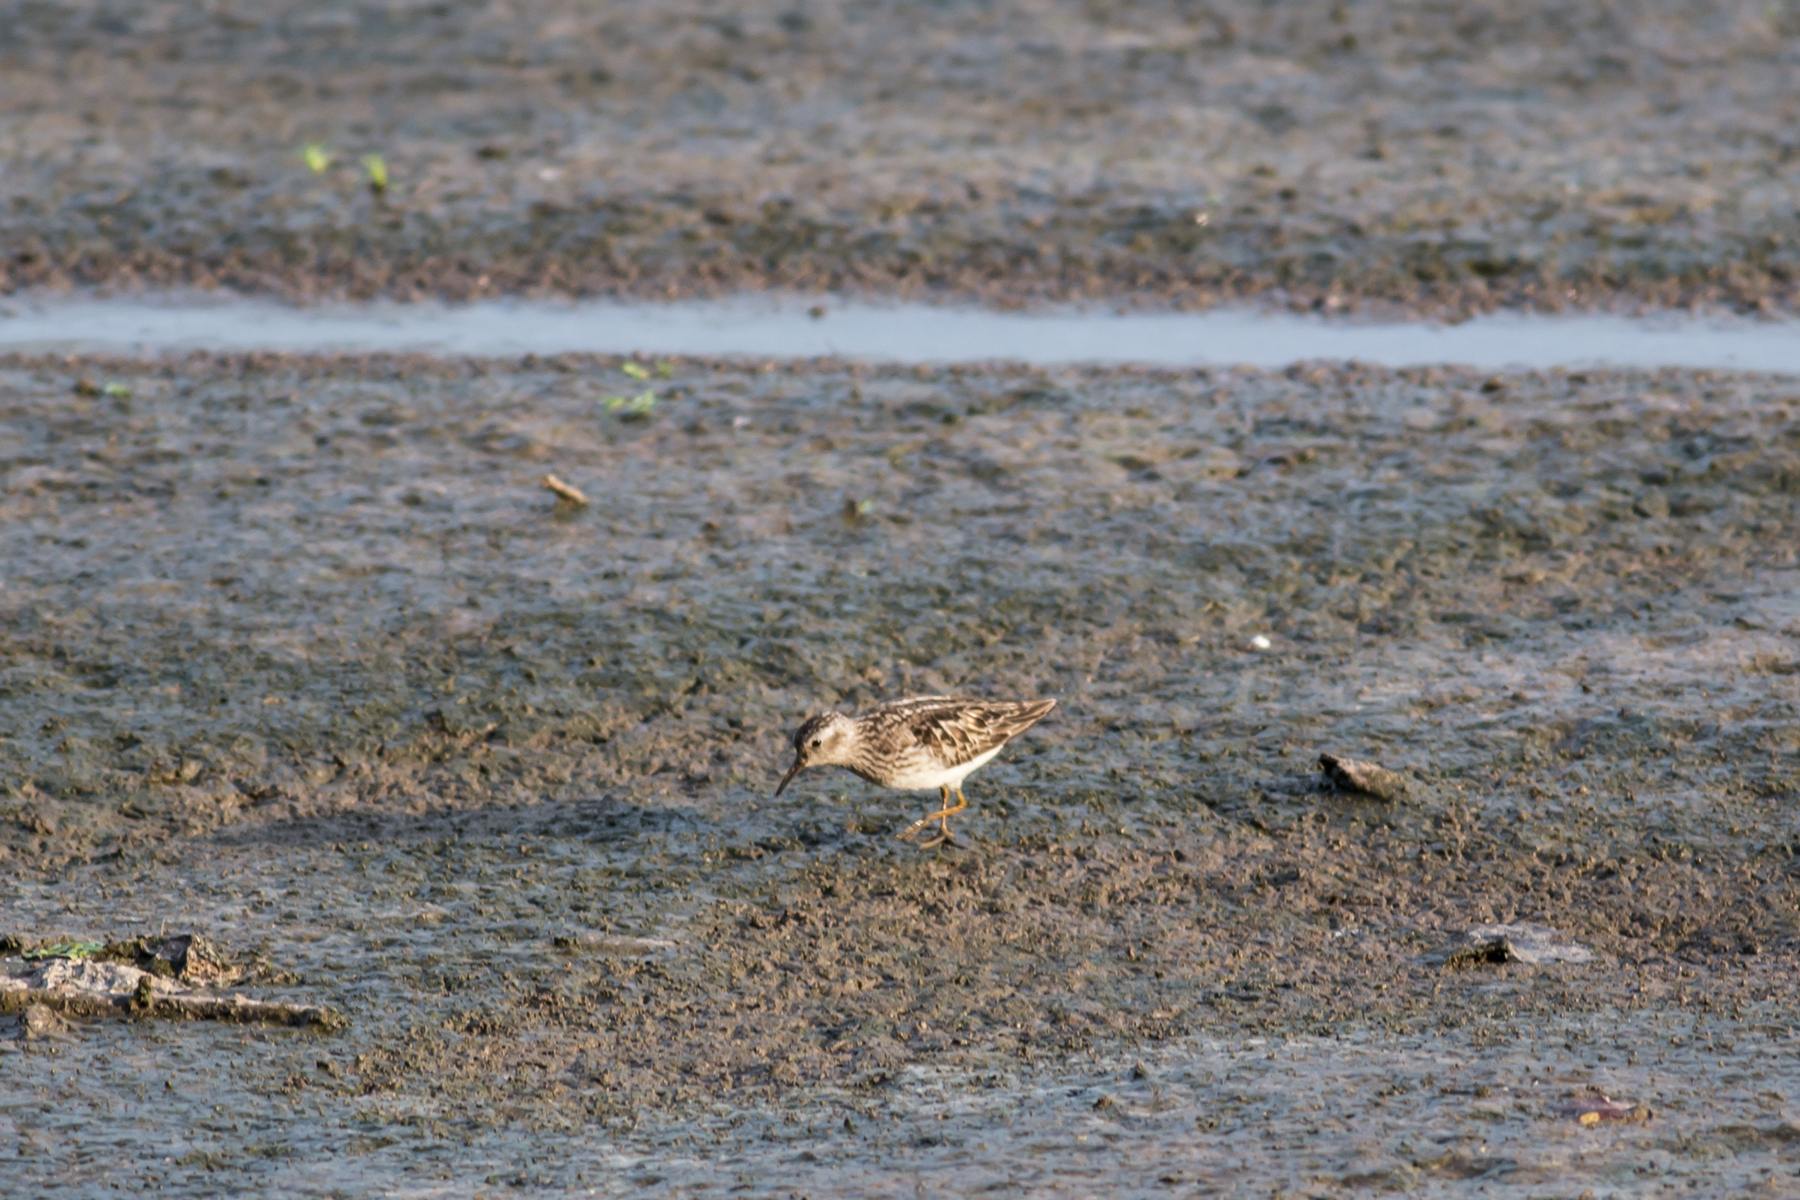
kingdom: Animalia
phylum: Chordata
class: Aves
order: Charadriiformes
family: Scolopacidae
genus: Calidris
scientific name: Calidris minutilla
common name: Least sandpiper
